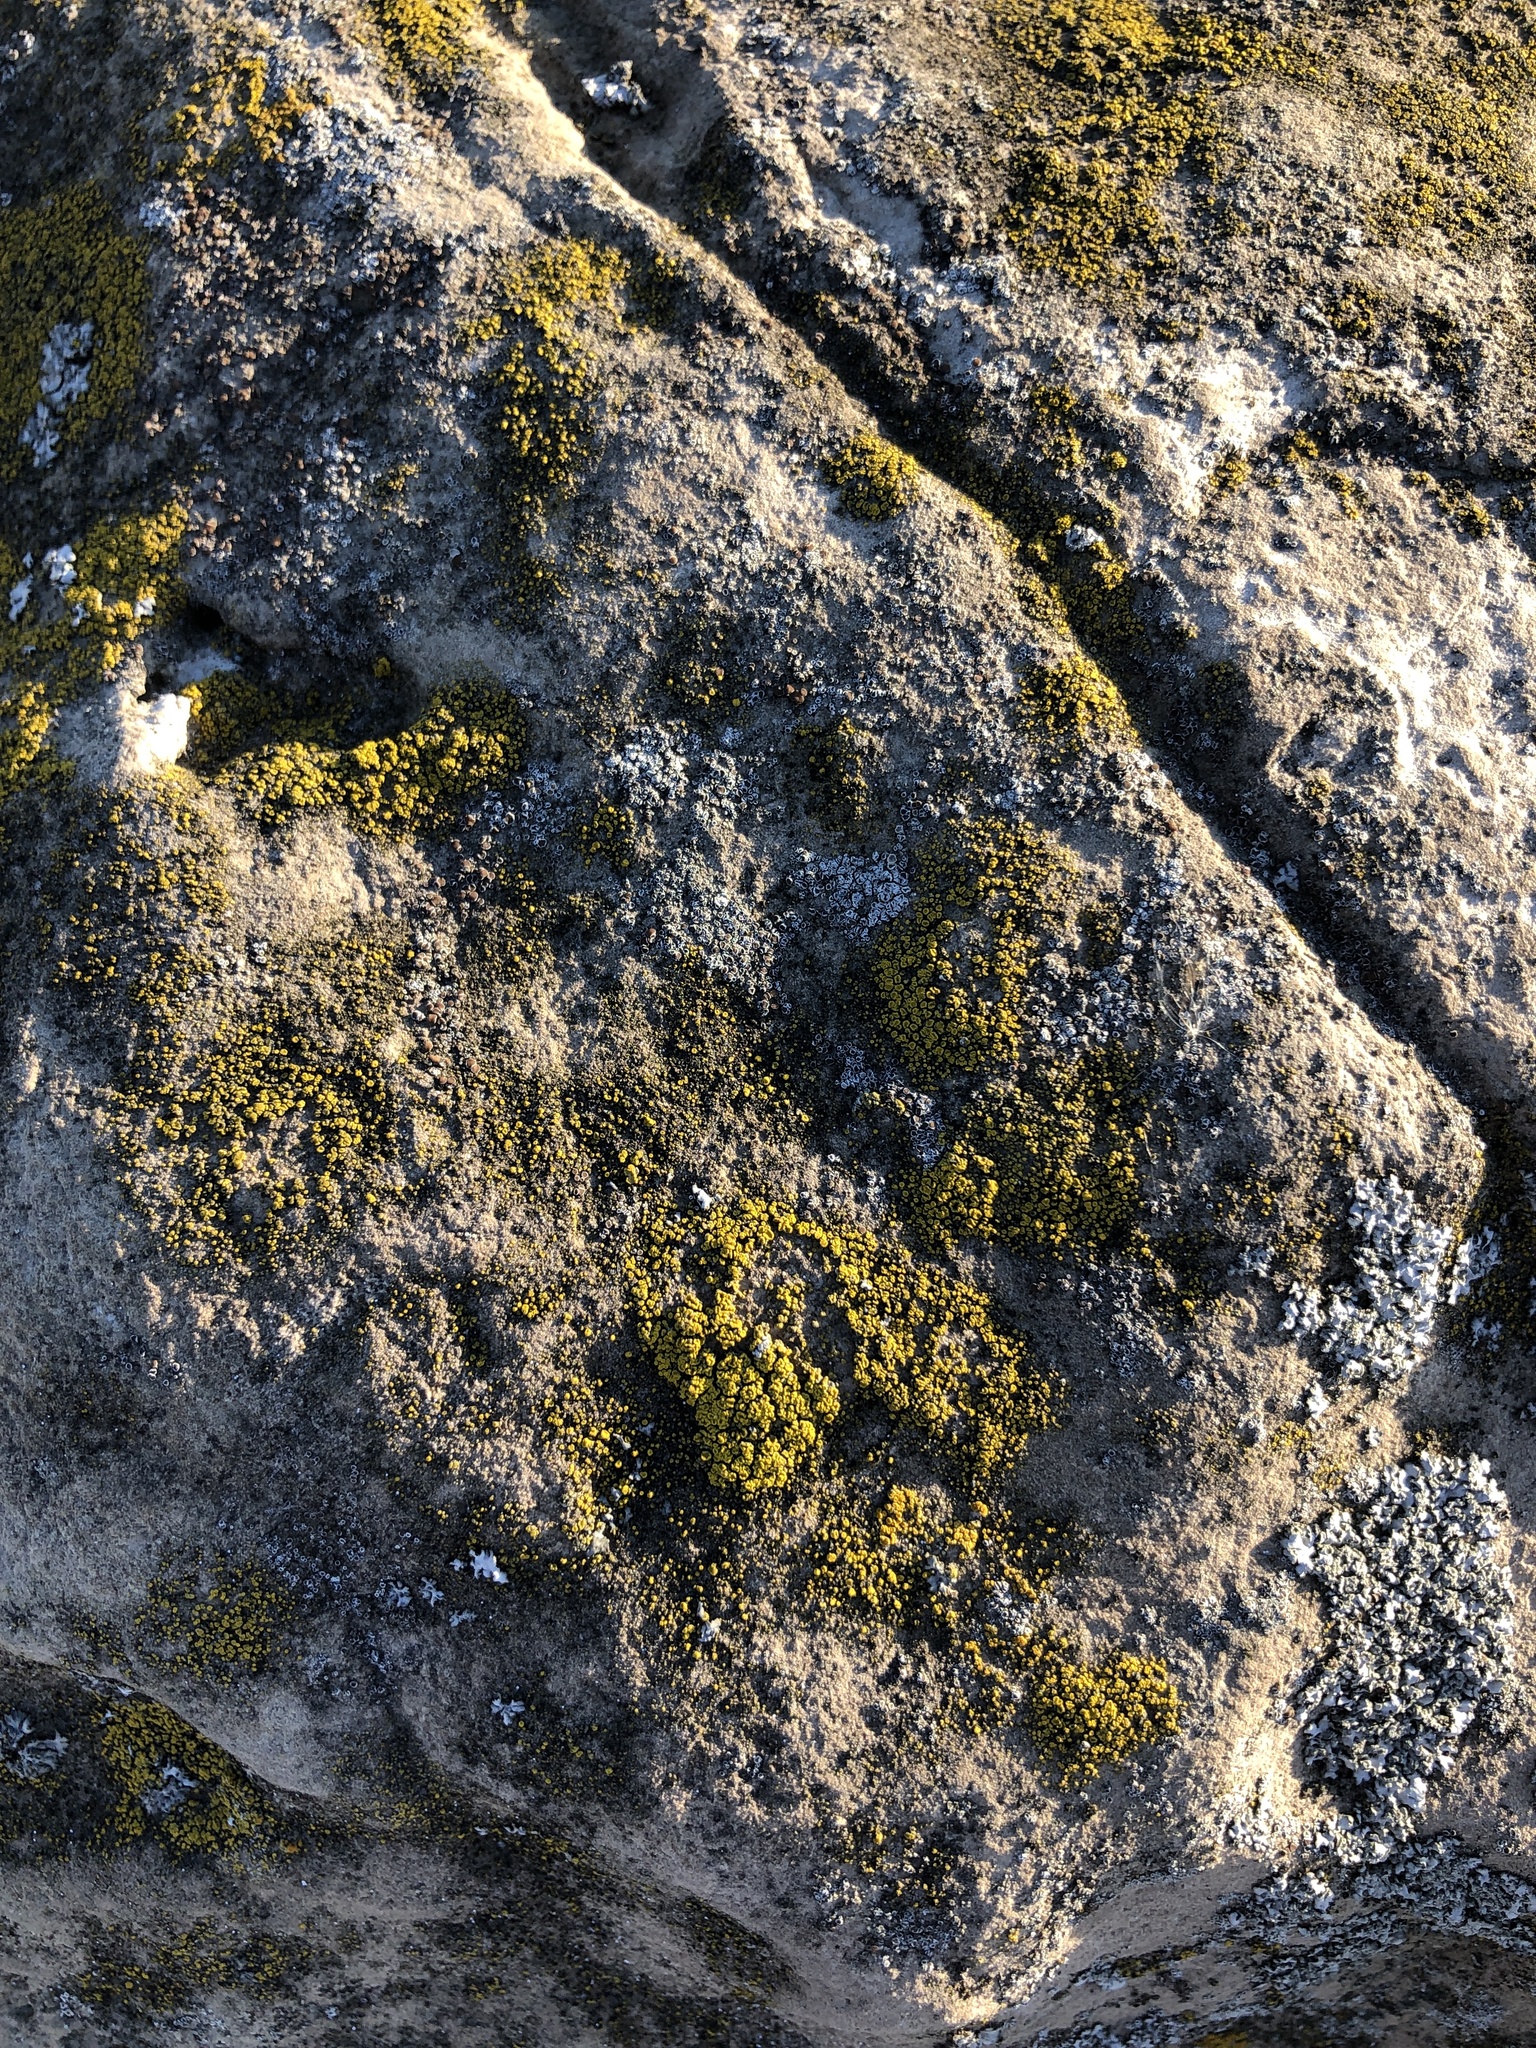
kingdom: Fungi
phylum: Ascomycota
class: Candelariomycetes
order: Candelariales
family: Candelariaceae
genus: Candelariella
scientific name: Candelariella aurella
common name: Hidden goldspeck lichen
